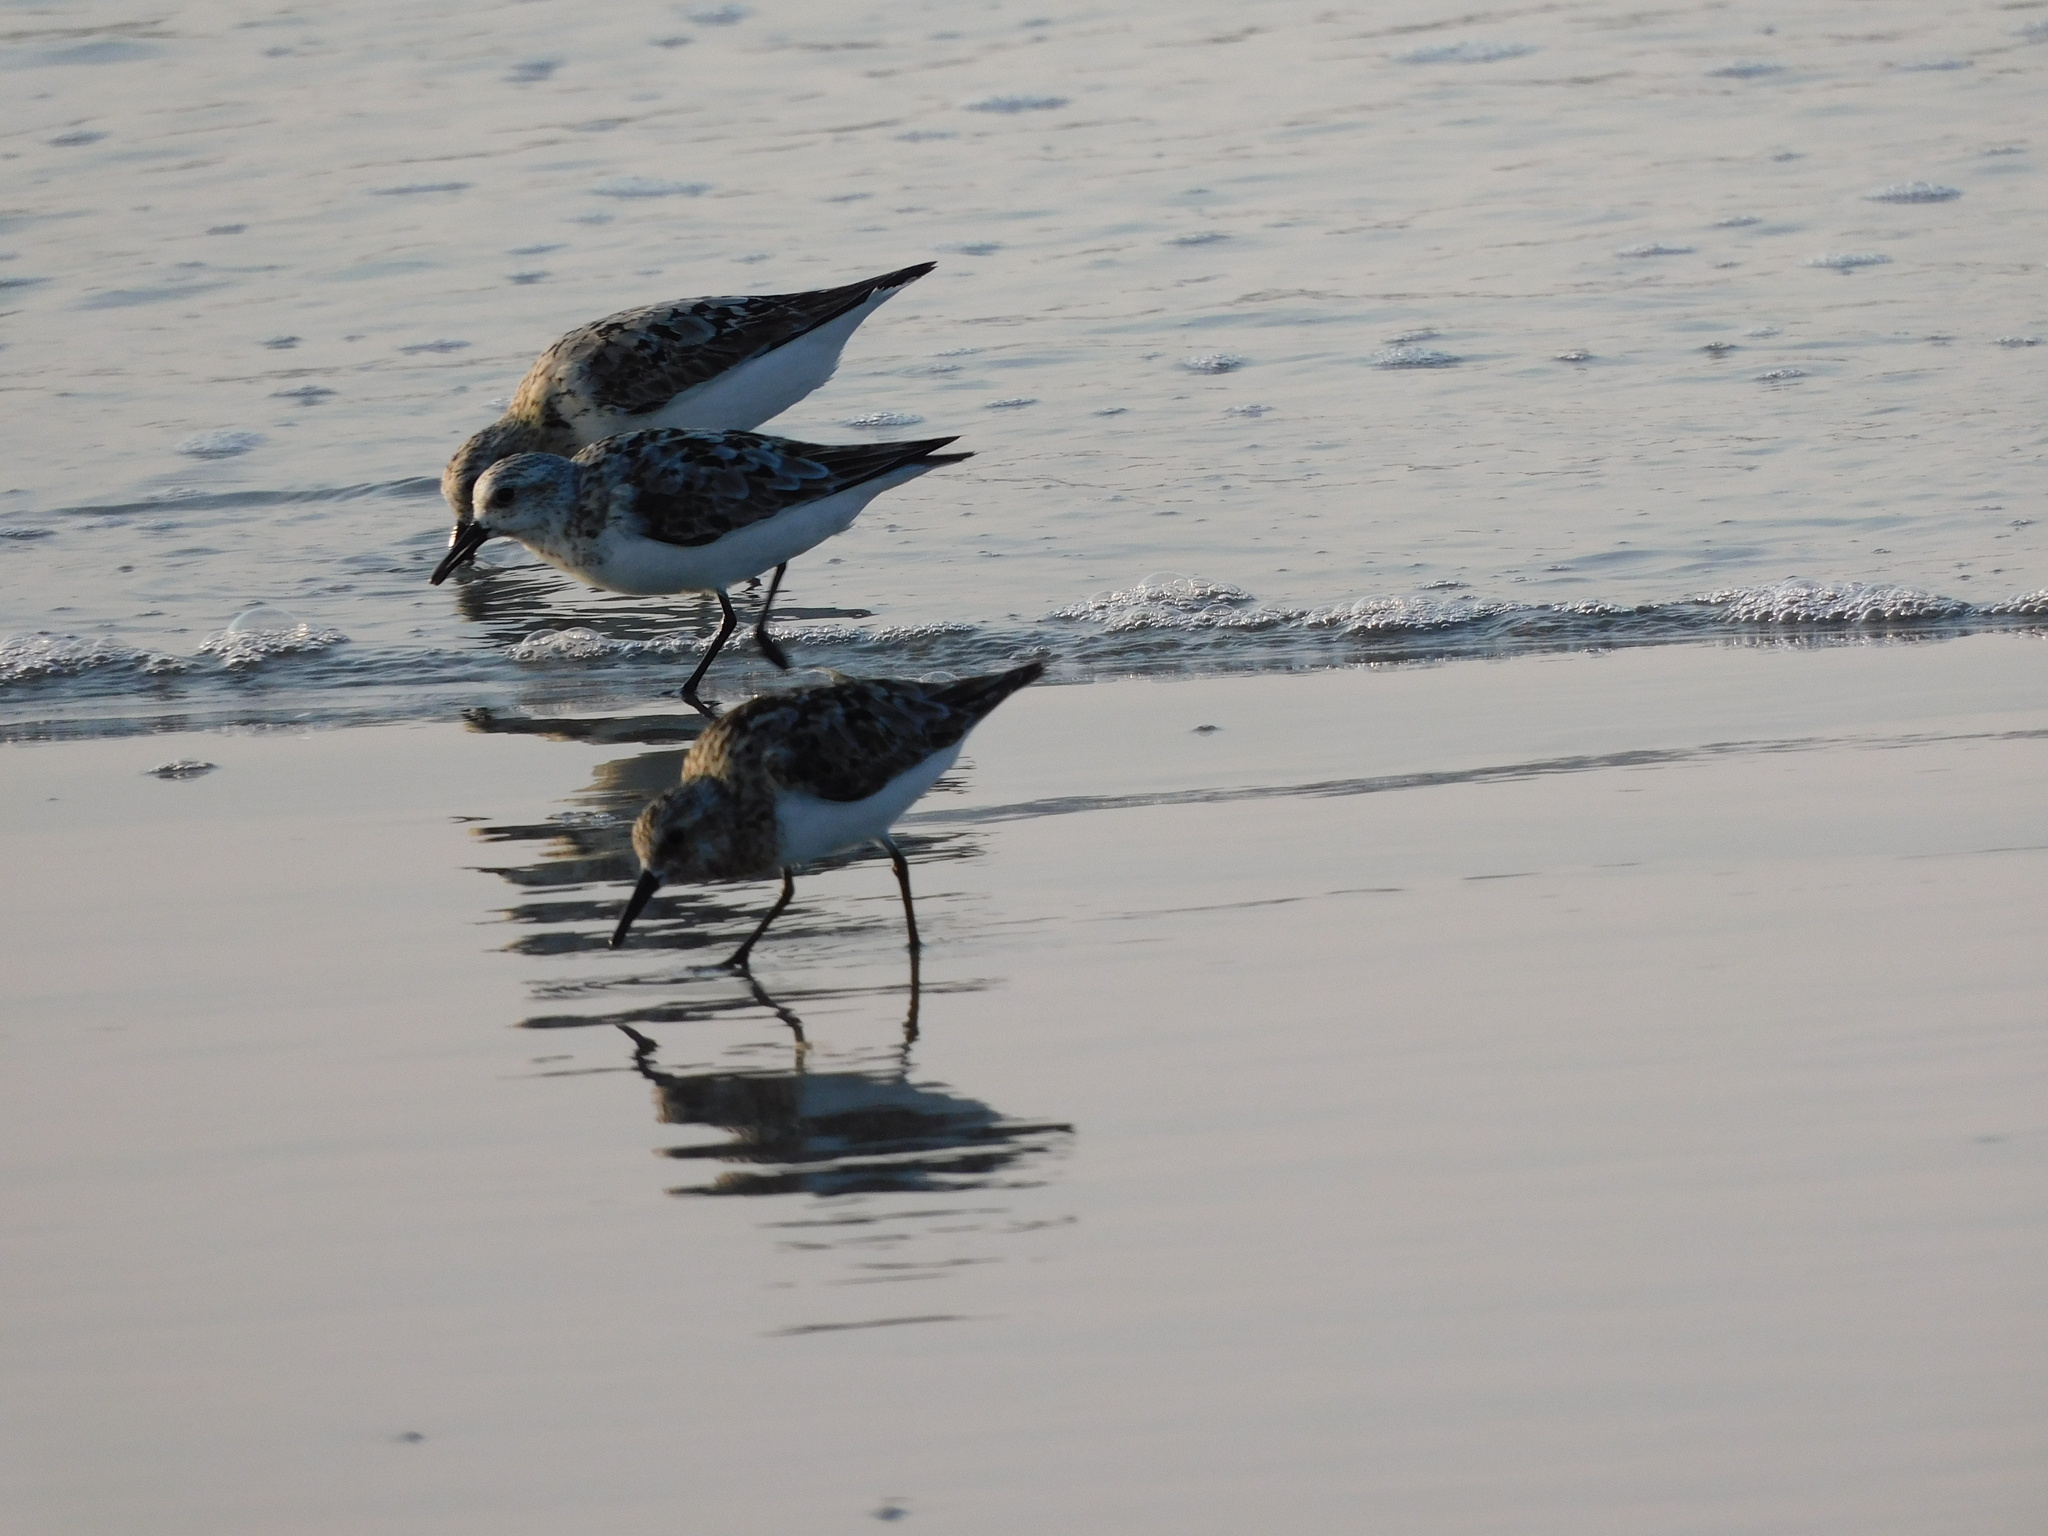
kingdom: Animalia
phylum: Chordata
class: Aves
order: Charadriiformes
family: Scolopacidae
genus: Calidris
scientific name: Calidris alba
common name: Sanderling
